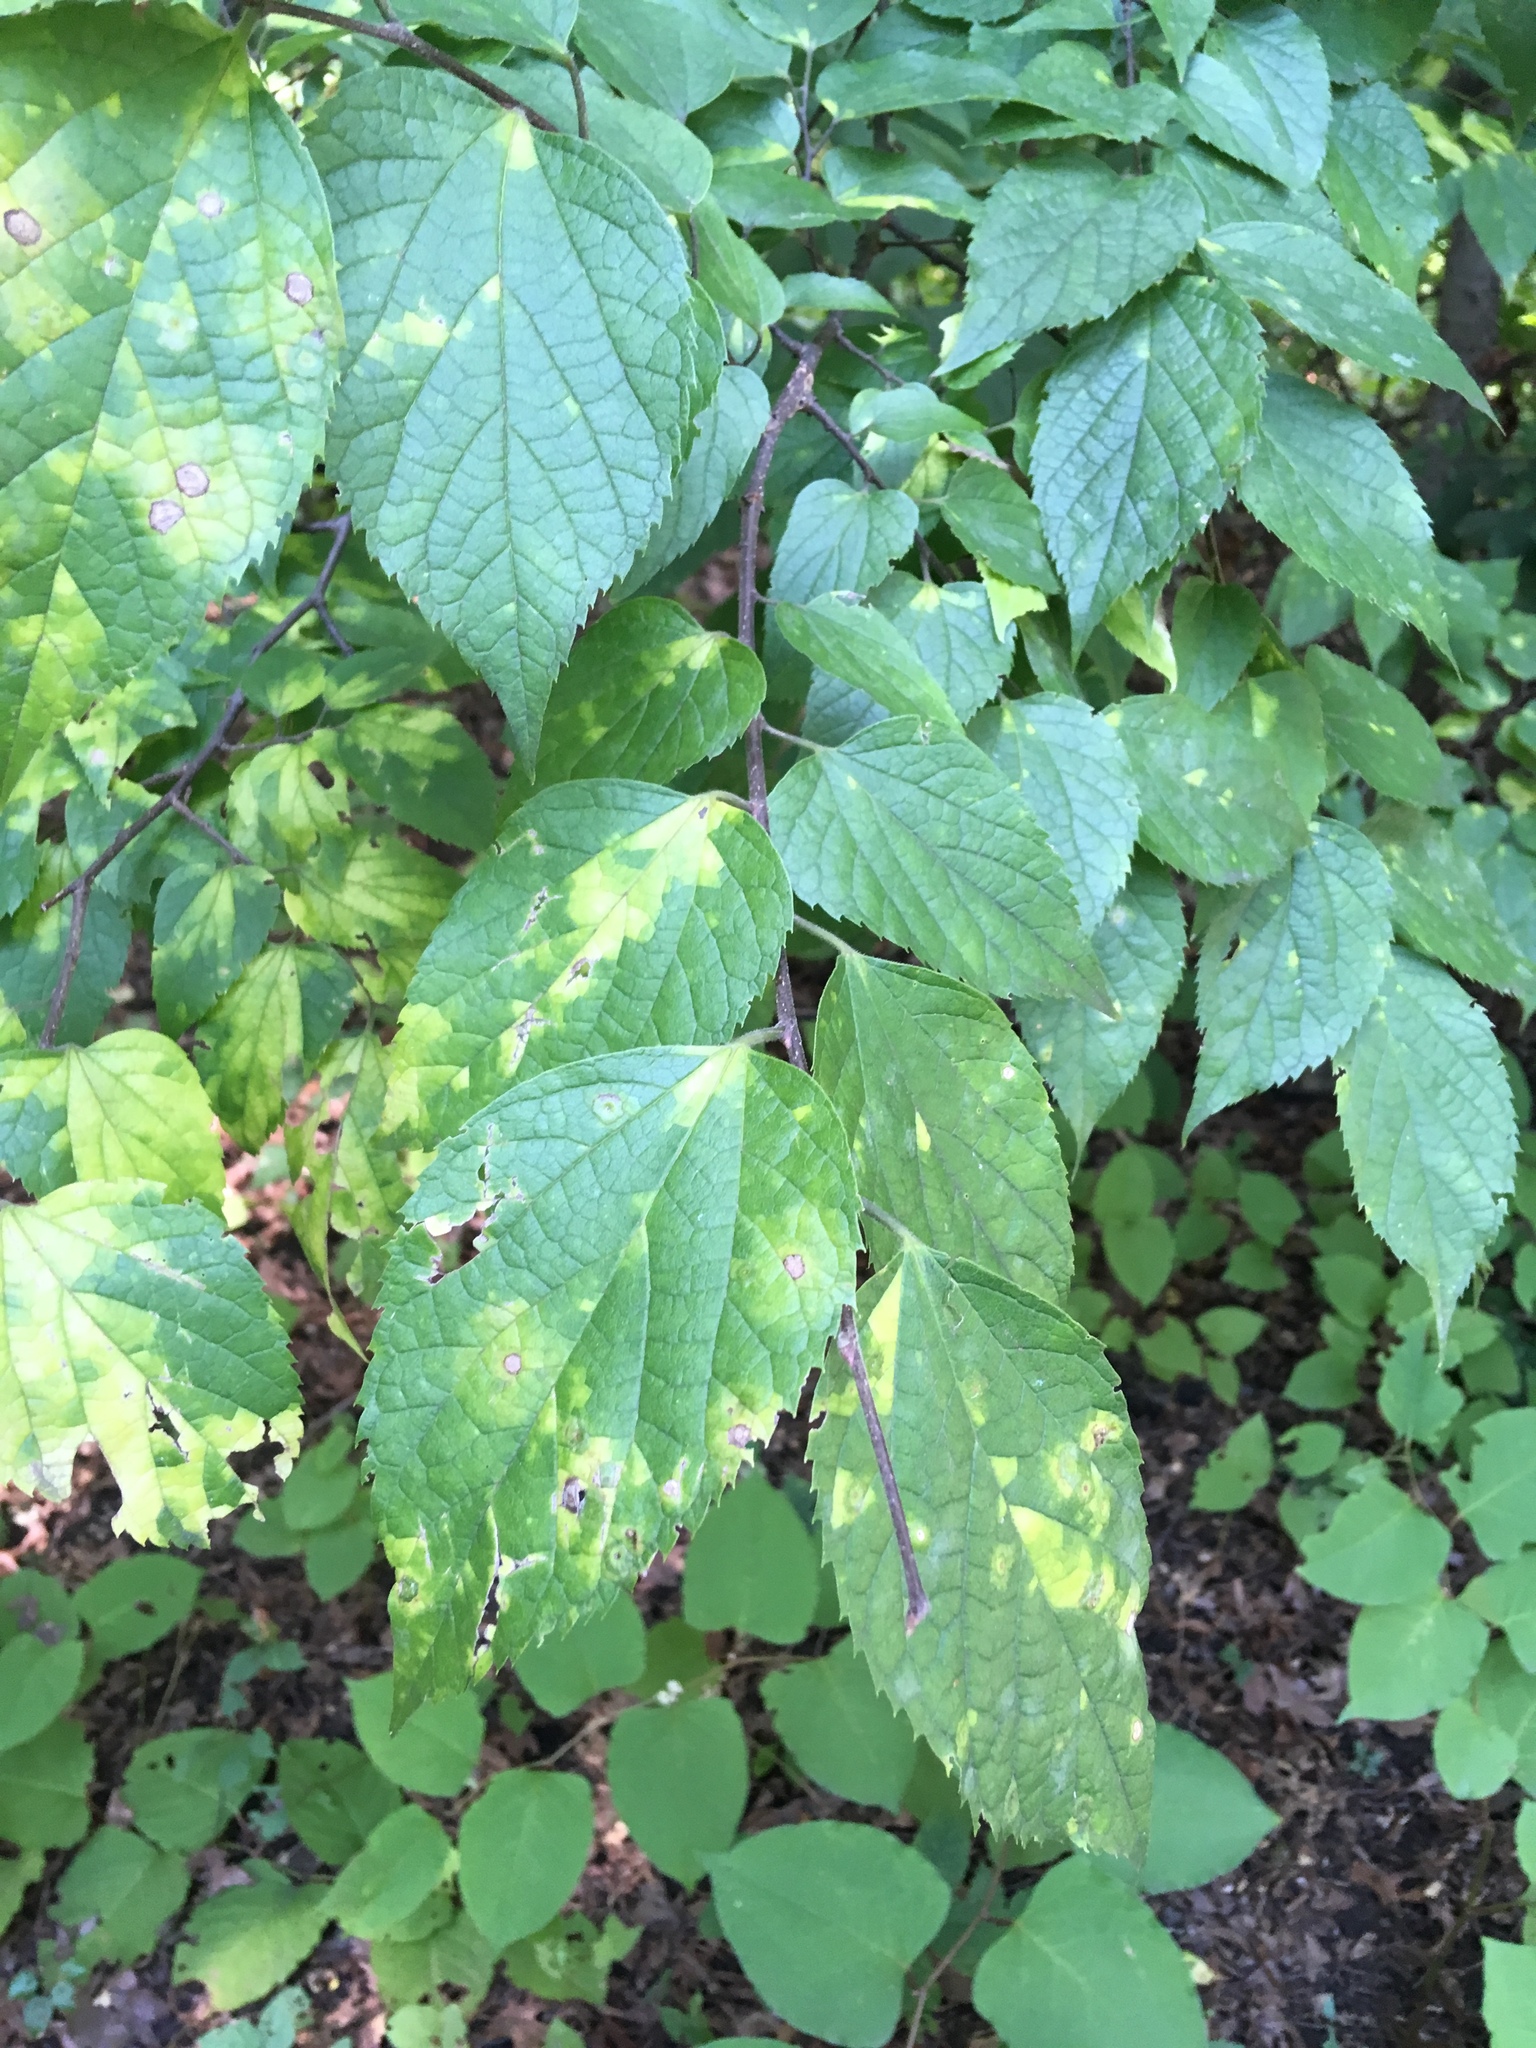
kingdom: Plantae
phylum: Tracheophyta
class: Magnoliopsida
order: Rosales
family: Cannabaceae
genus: Celtis
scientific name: Celtis occidentalis
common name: Common hackberry
